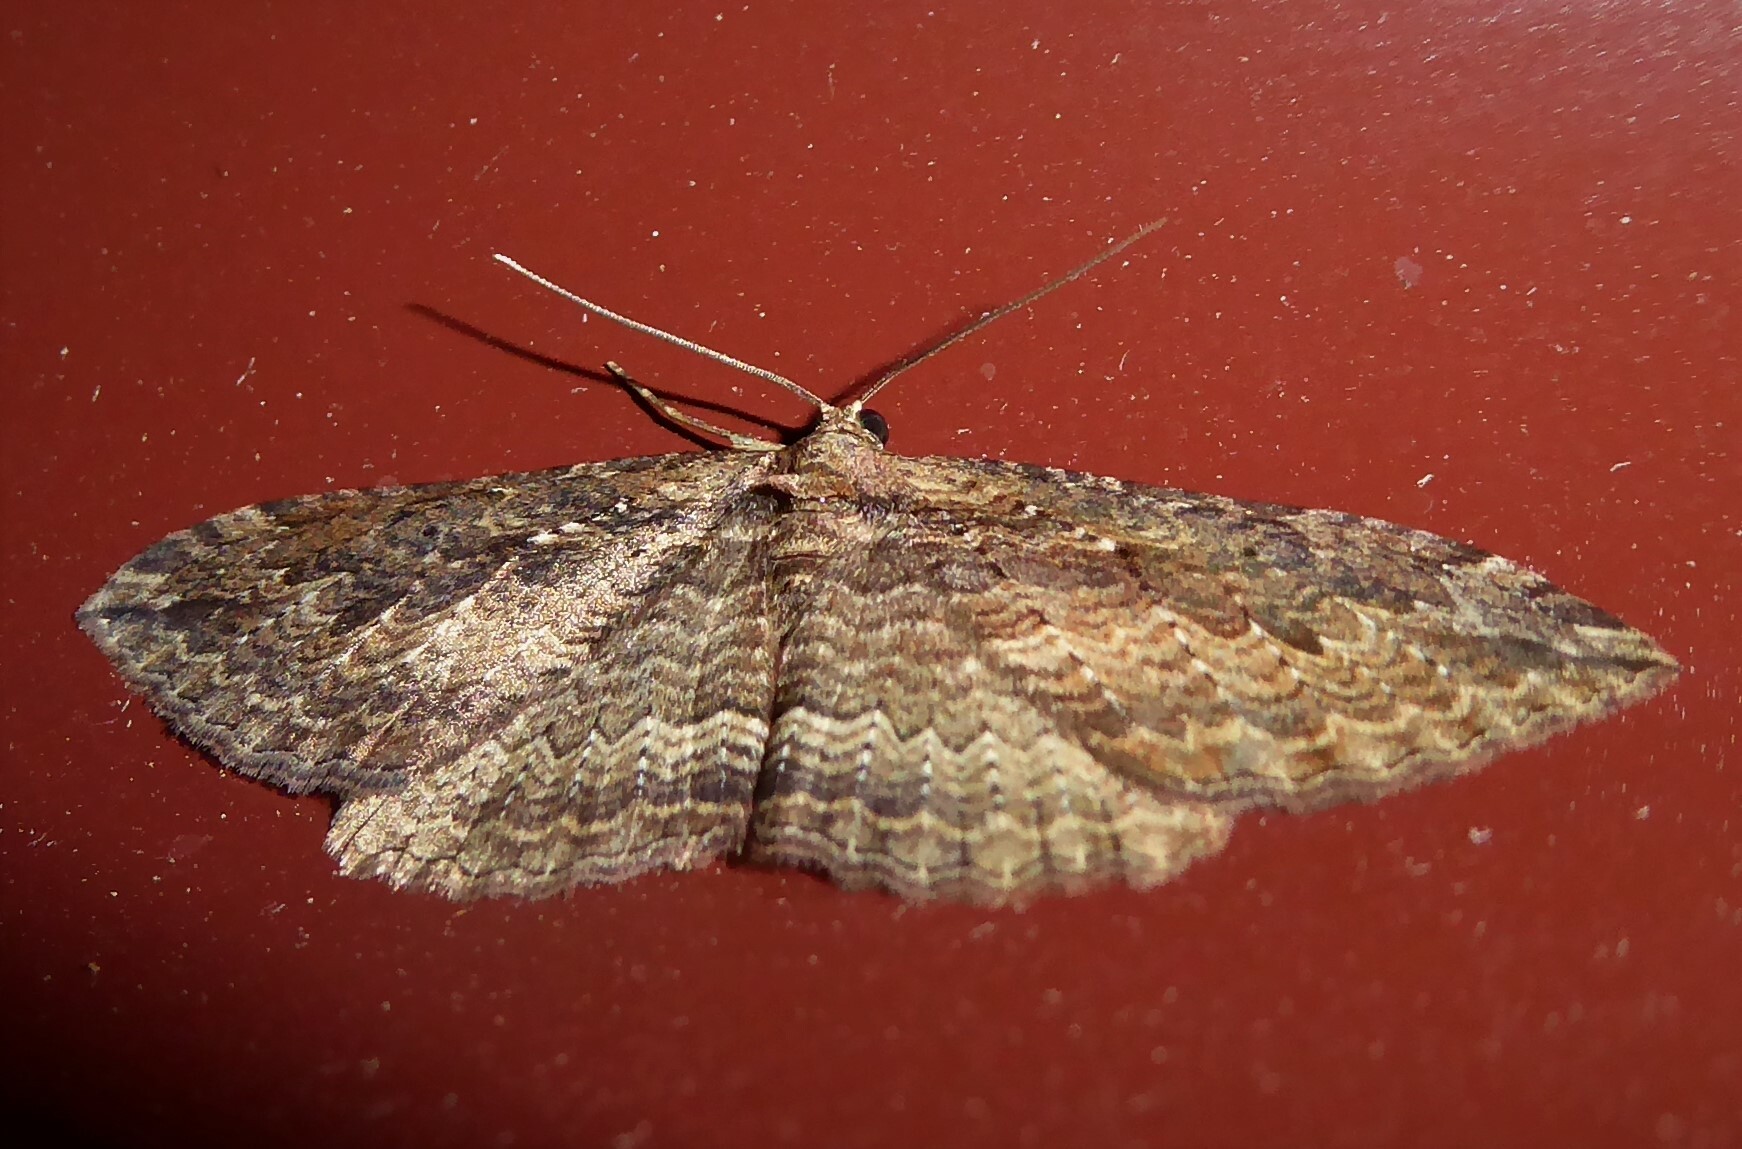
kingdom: Animalia
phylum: Arthropoda
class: Insecta
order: Lepidoptera
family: Geometridae
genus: Austrocidaria
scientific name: Austrocidaria gobiata
